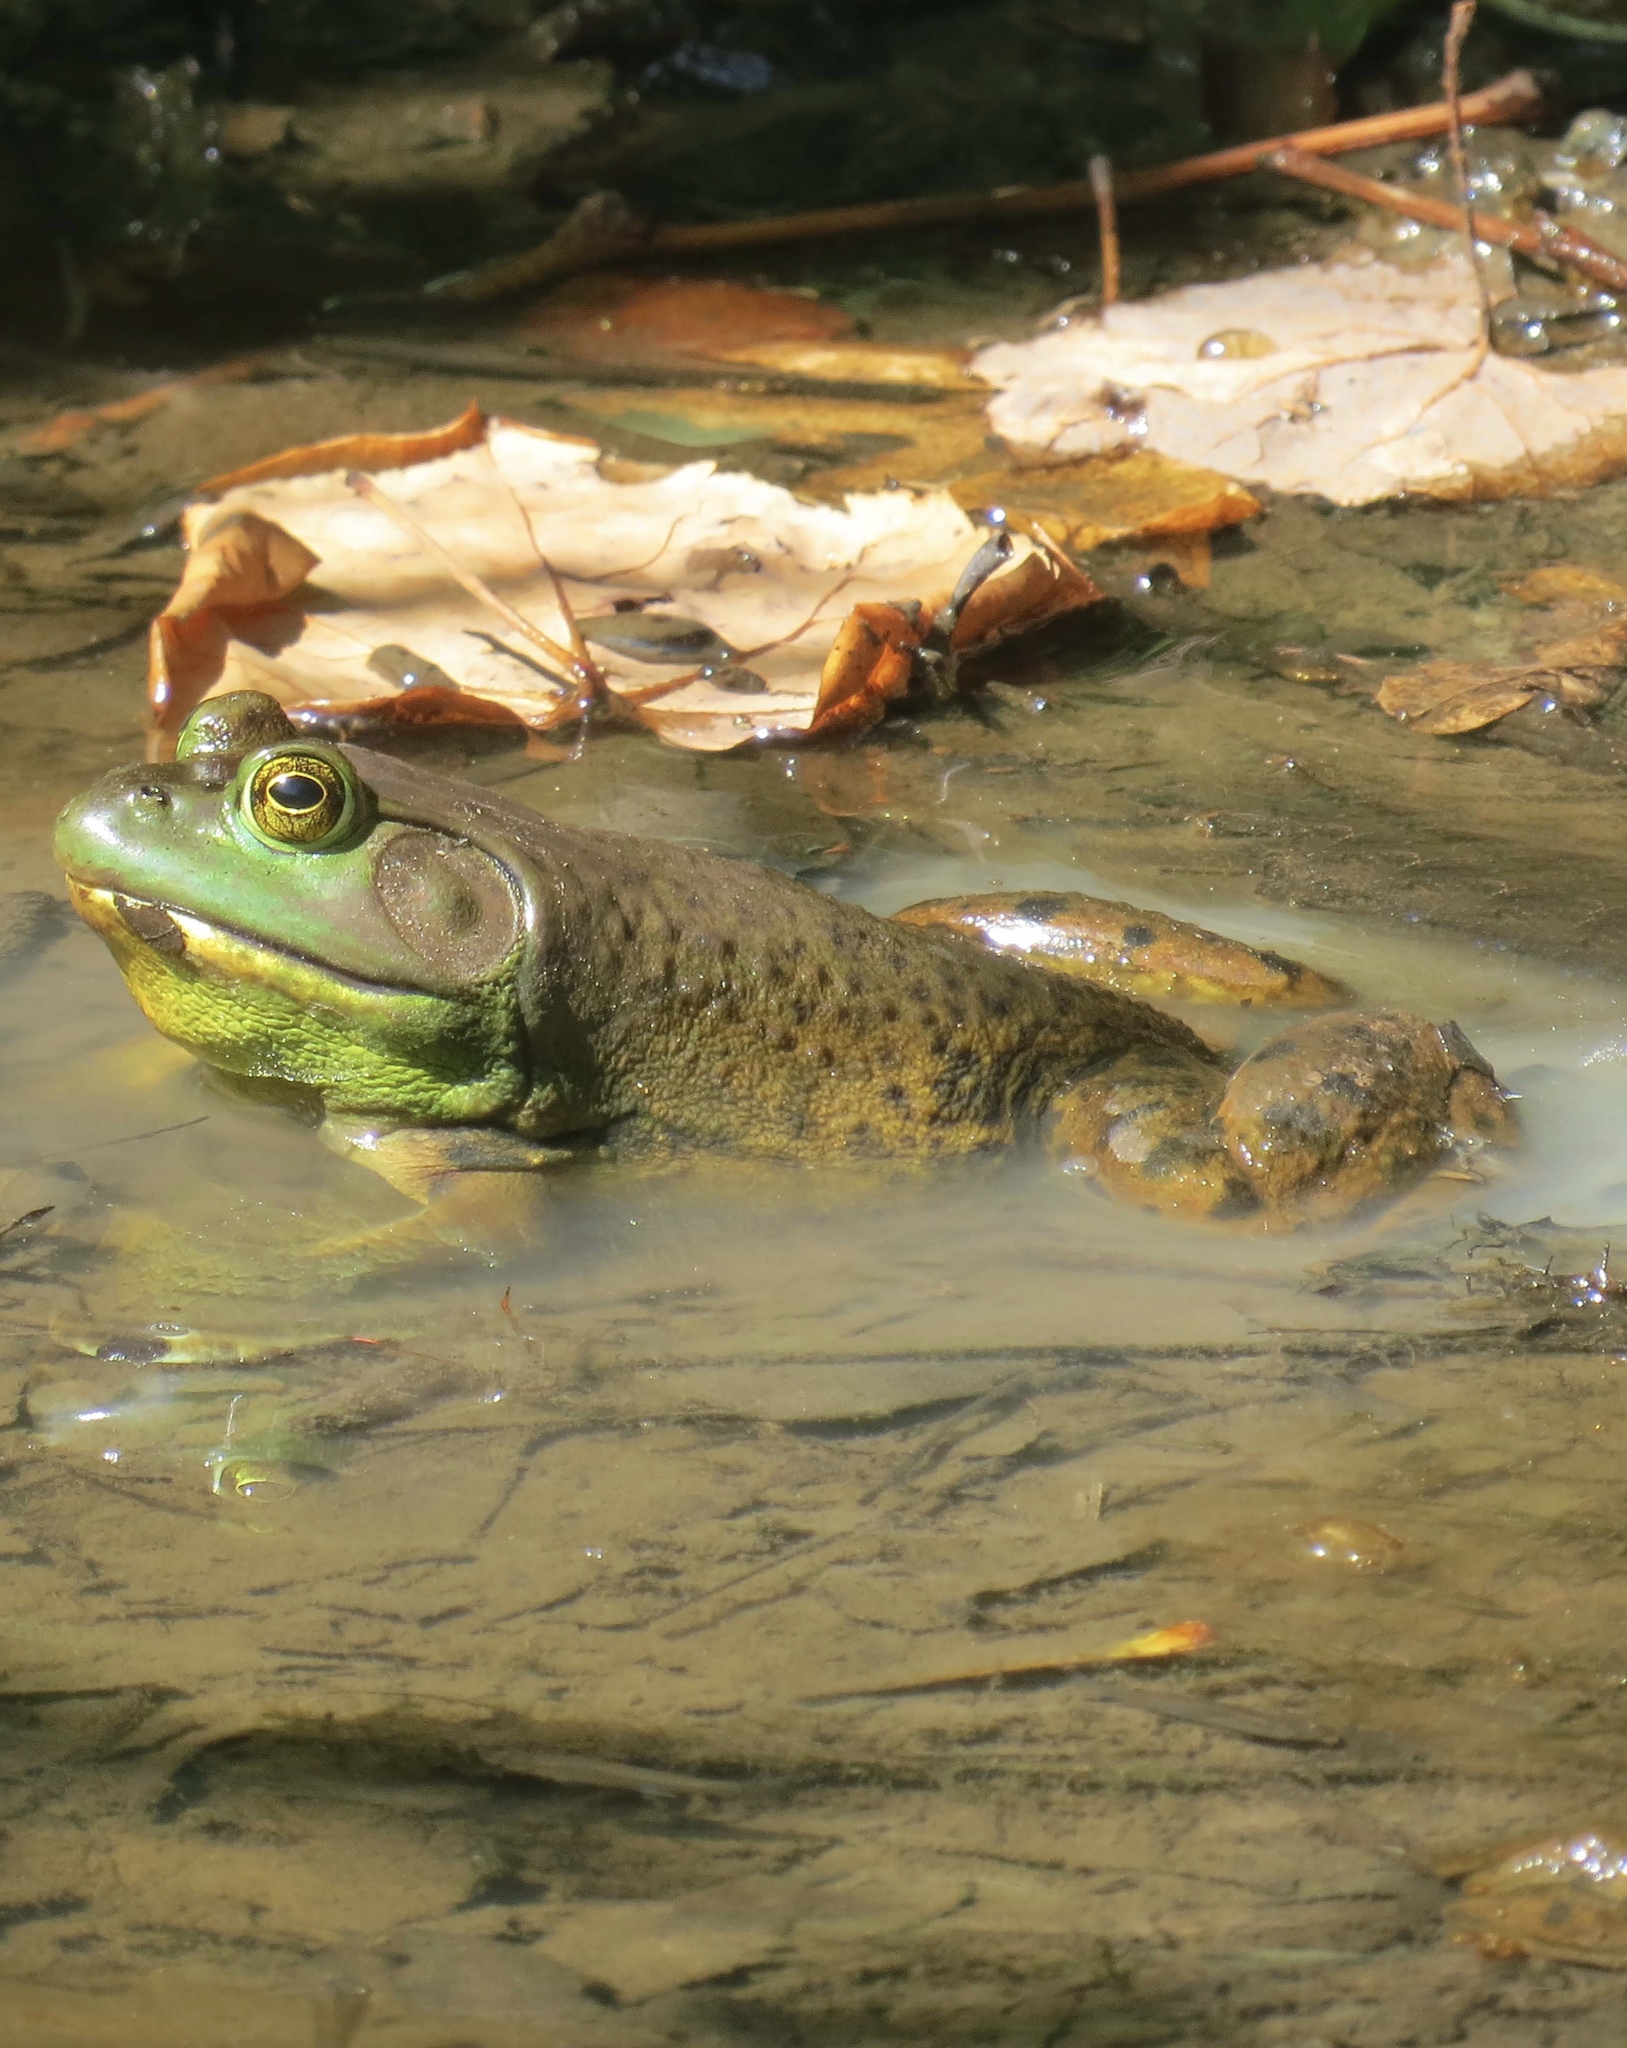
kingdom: Animalia
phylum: Chordata
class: Amphibia
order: Anura
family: Ranidae
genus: Lithobates
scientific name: Lithobates catesbeianus
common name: American bullfrog
